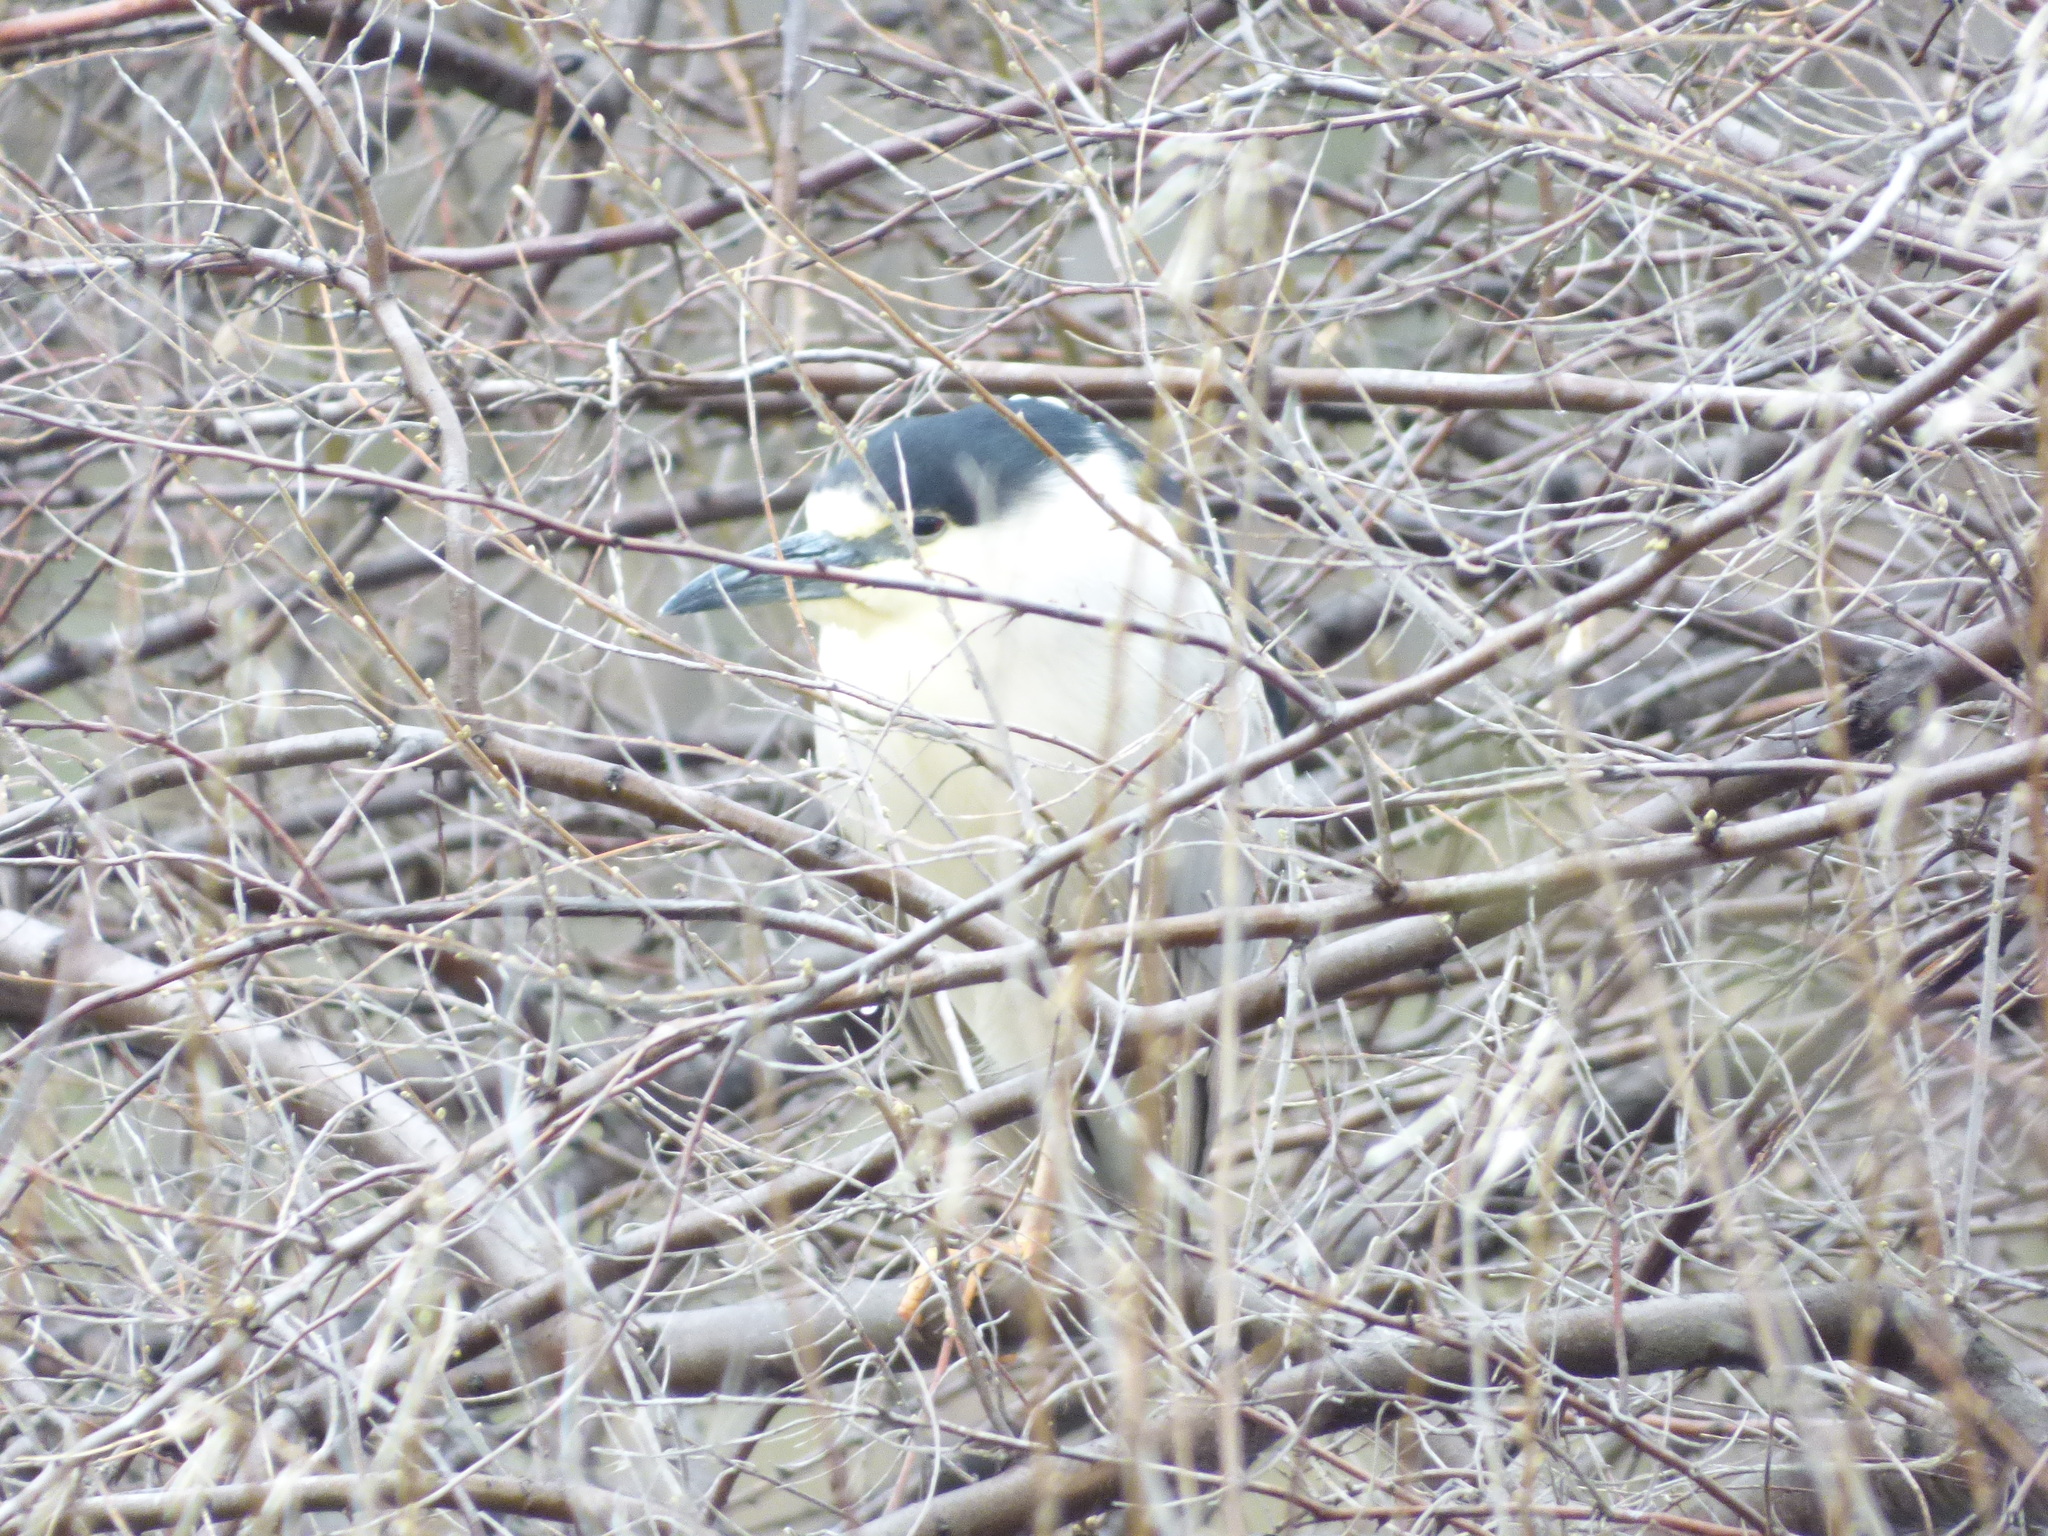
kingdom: Animalia
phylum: Chordata
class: Aves
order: Pelecaniformes
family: Ardeidae
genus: Nycticorax
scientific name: Nycticorax nycticorax
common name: Black-crowned night heron
